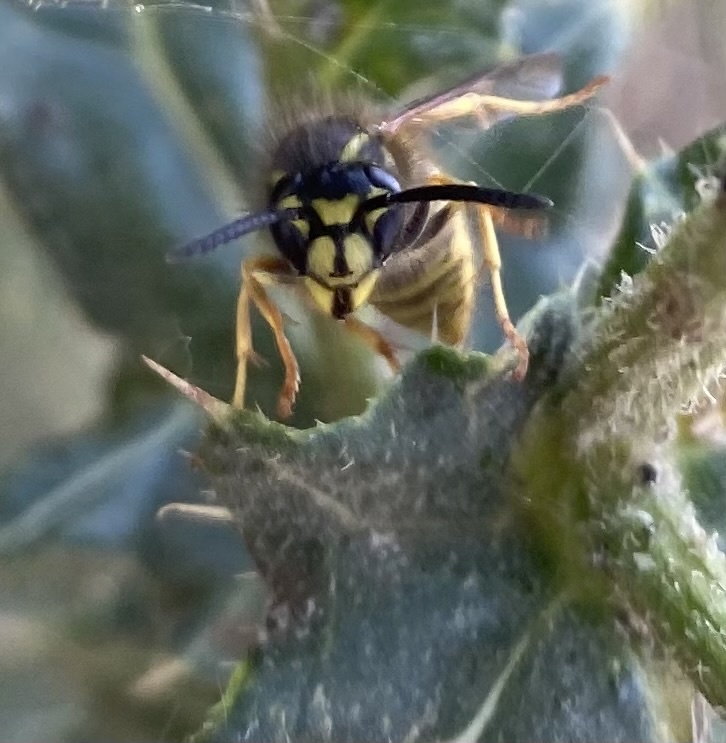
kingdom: Animalia
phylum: Arthropoda
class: Insecta
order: Hymenoptera
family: Vespidae
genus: Vespula
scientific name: Vespula vulgaris
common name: Common wasp
